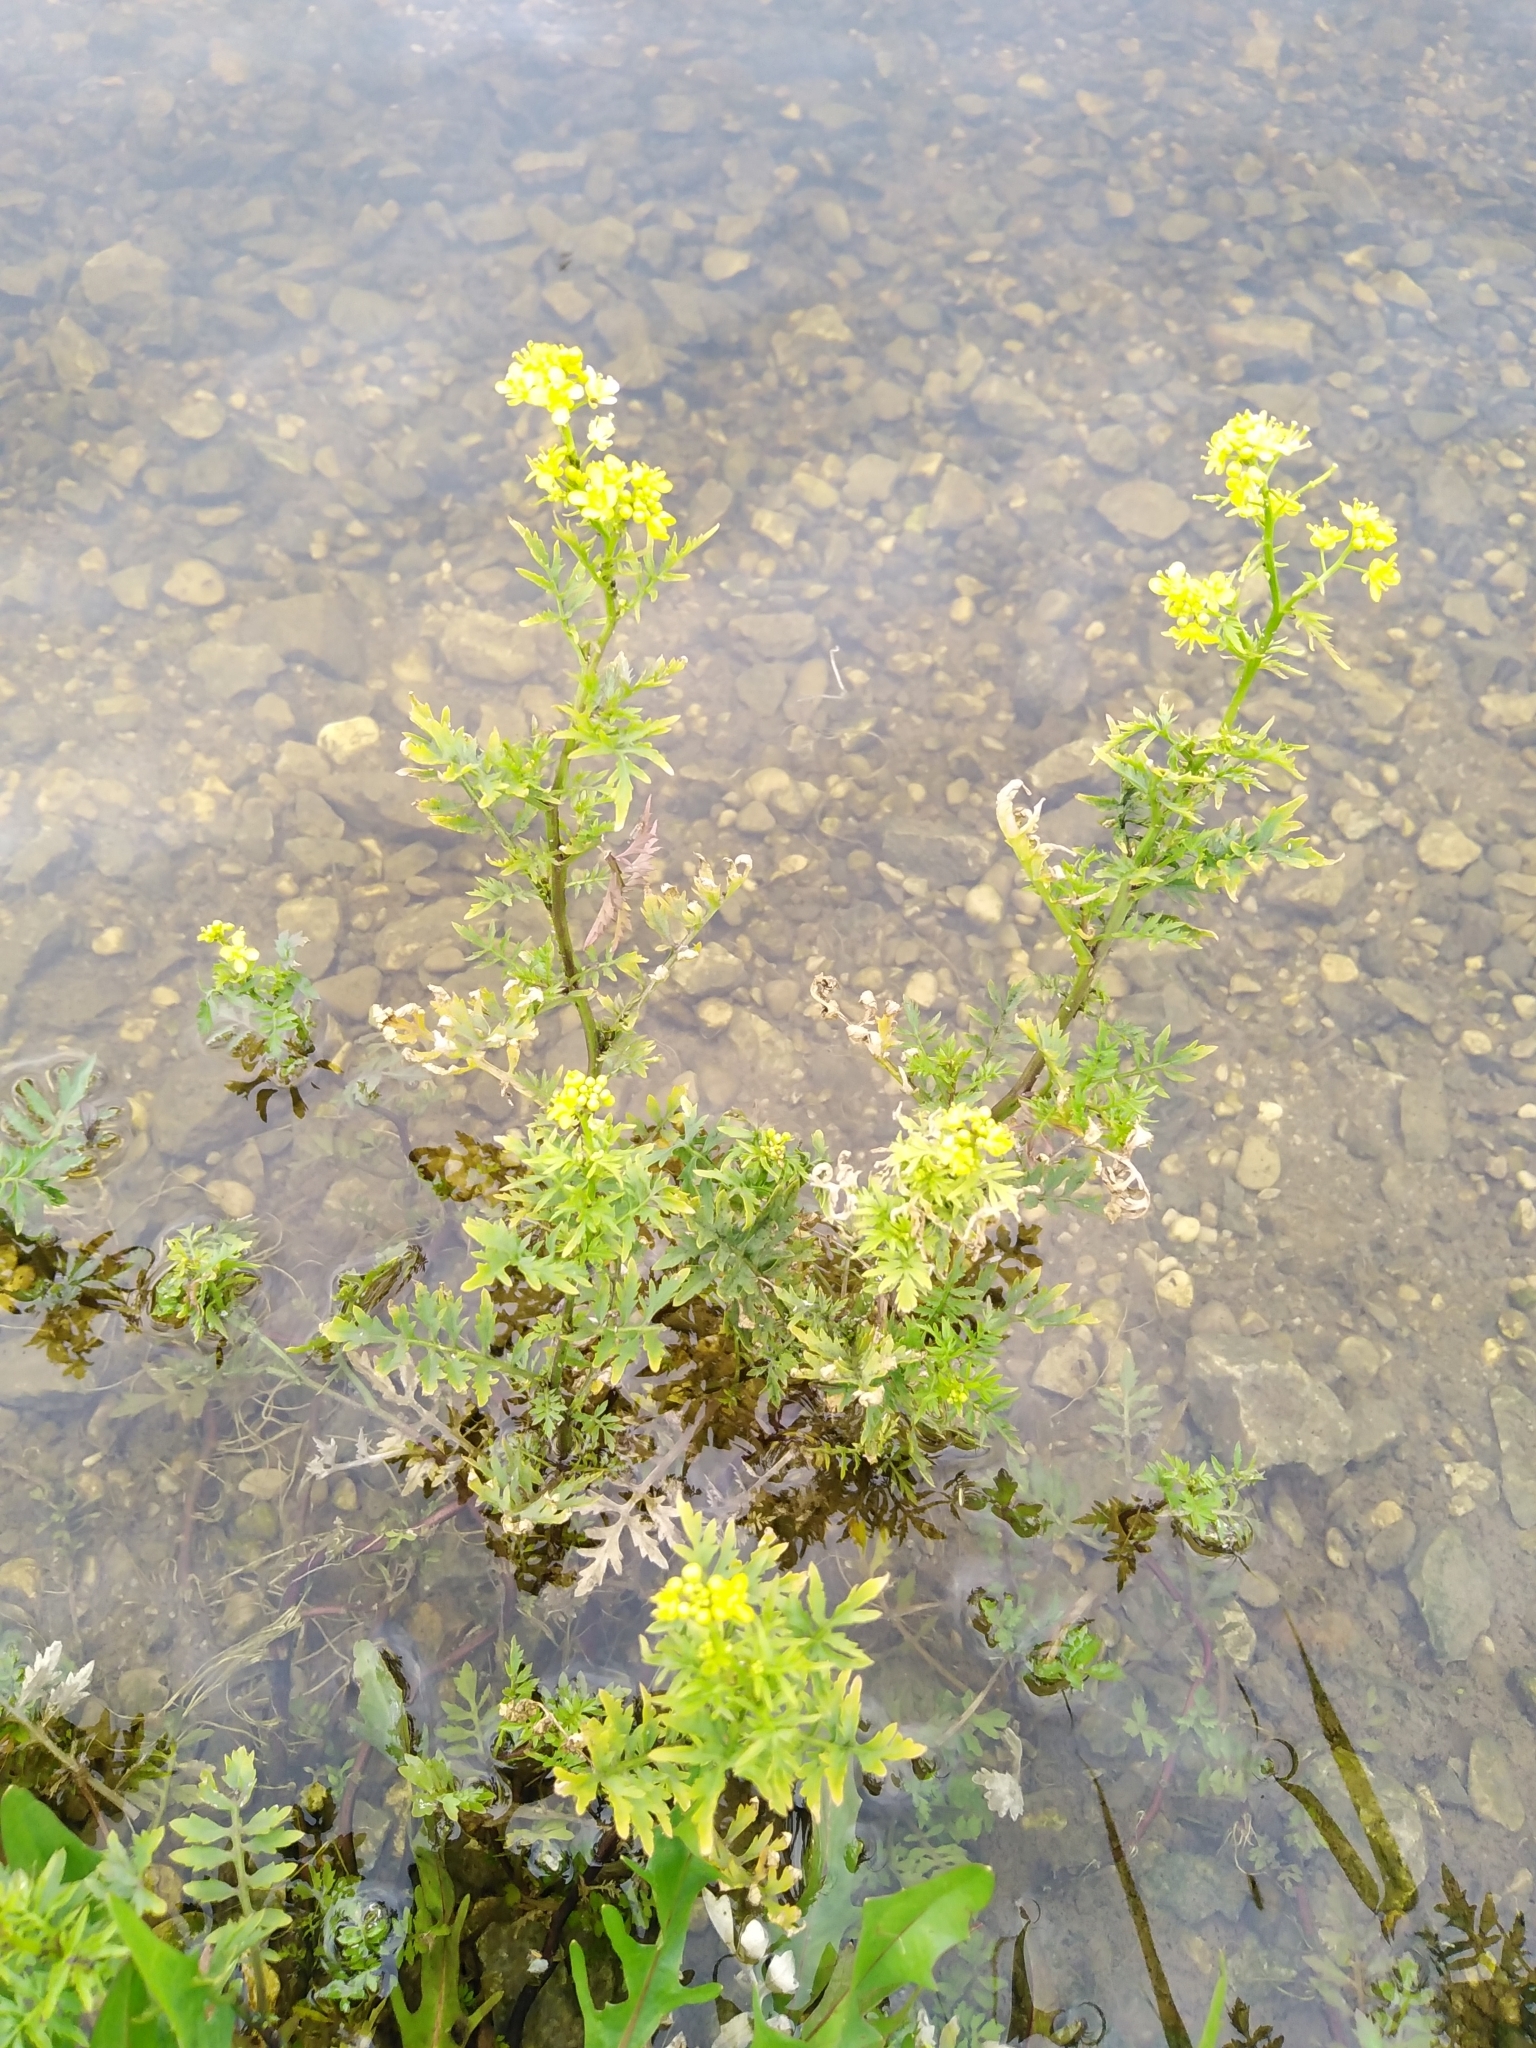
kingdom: Plantae
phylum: Tracheophyta
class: Magnoliopsida
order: Brassicales
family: Brassicaceae
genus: Rorippa
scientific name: Rorippa sylvestris
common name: Creeping yellowcress
